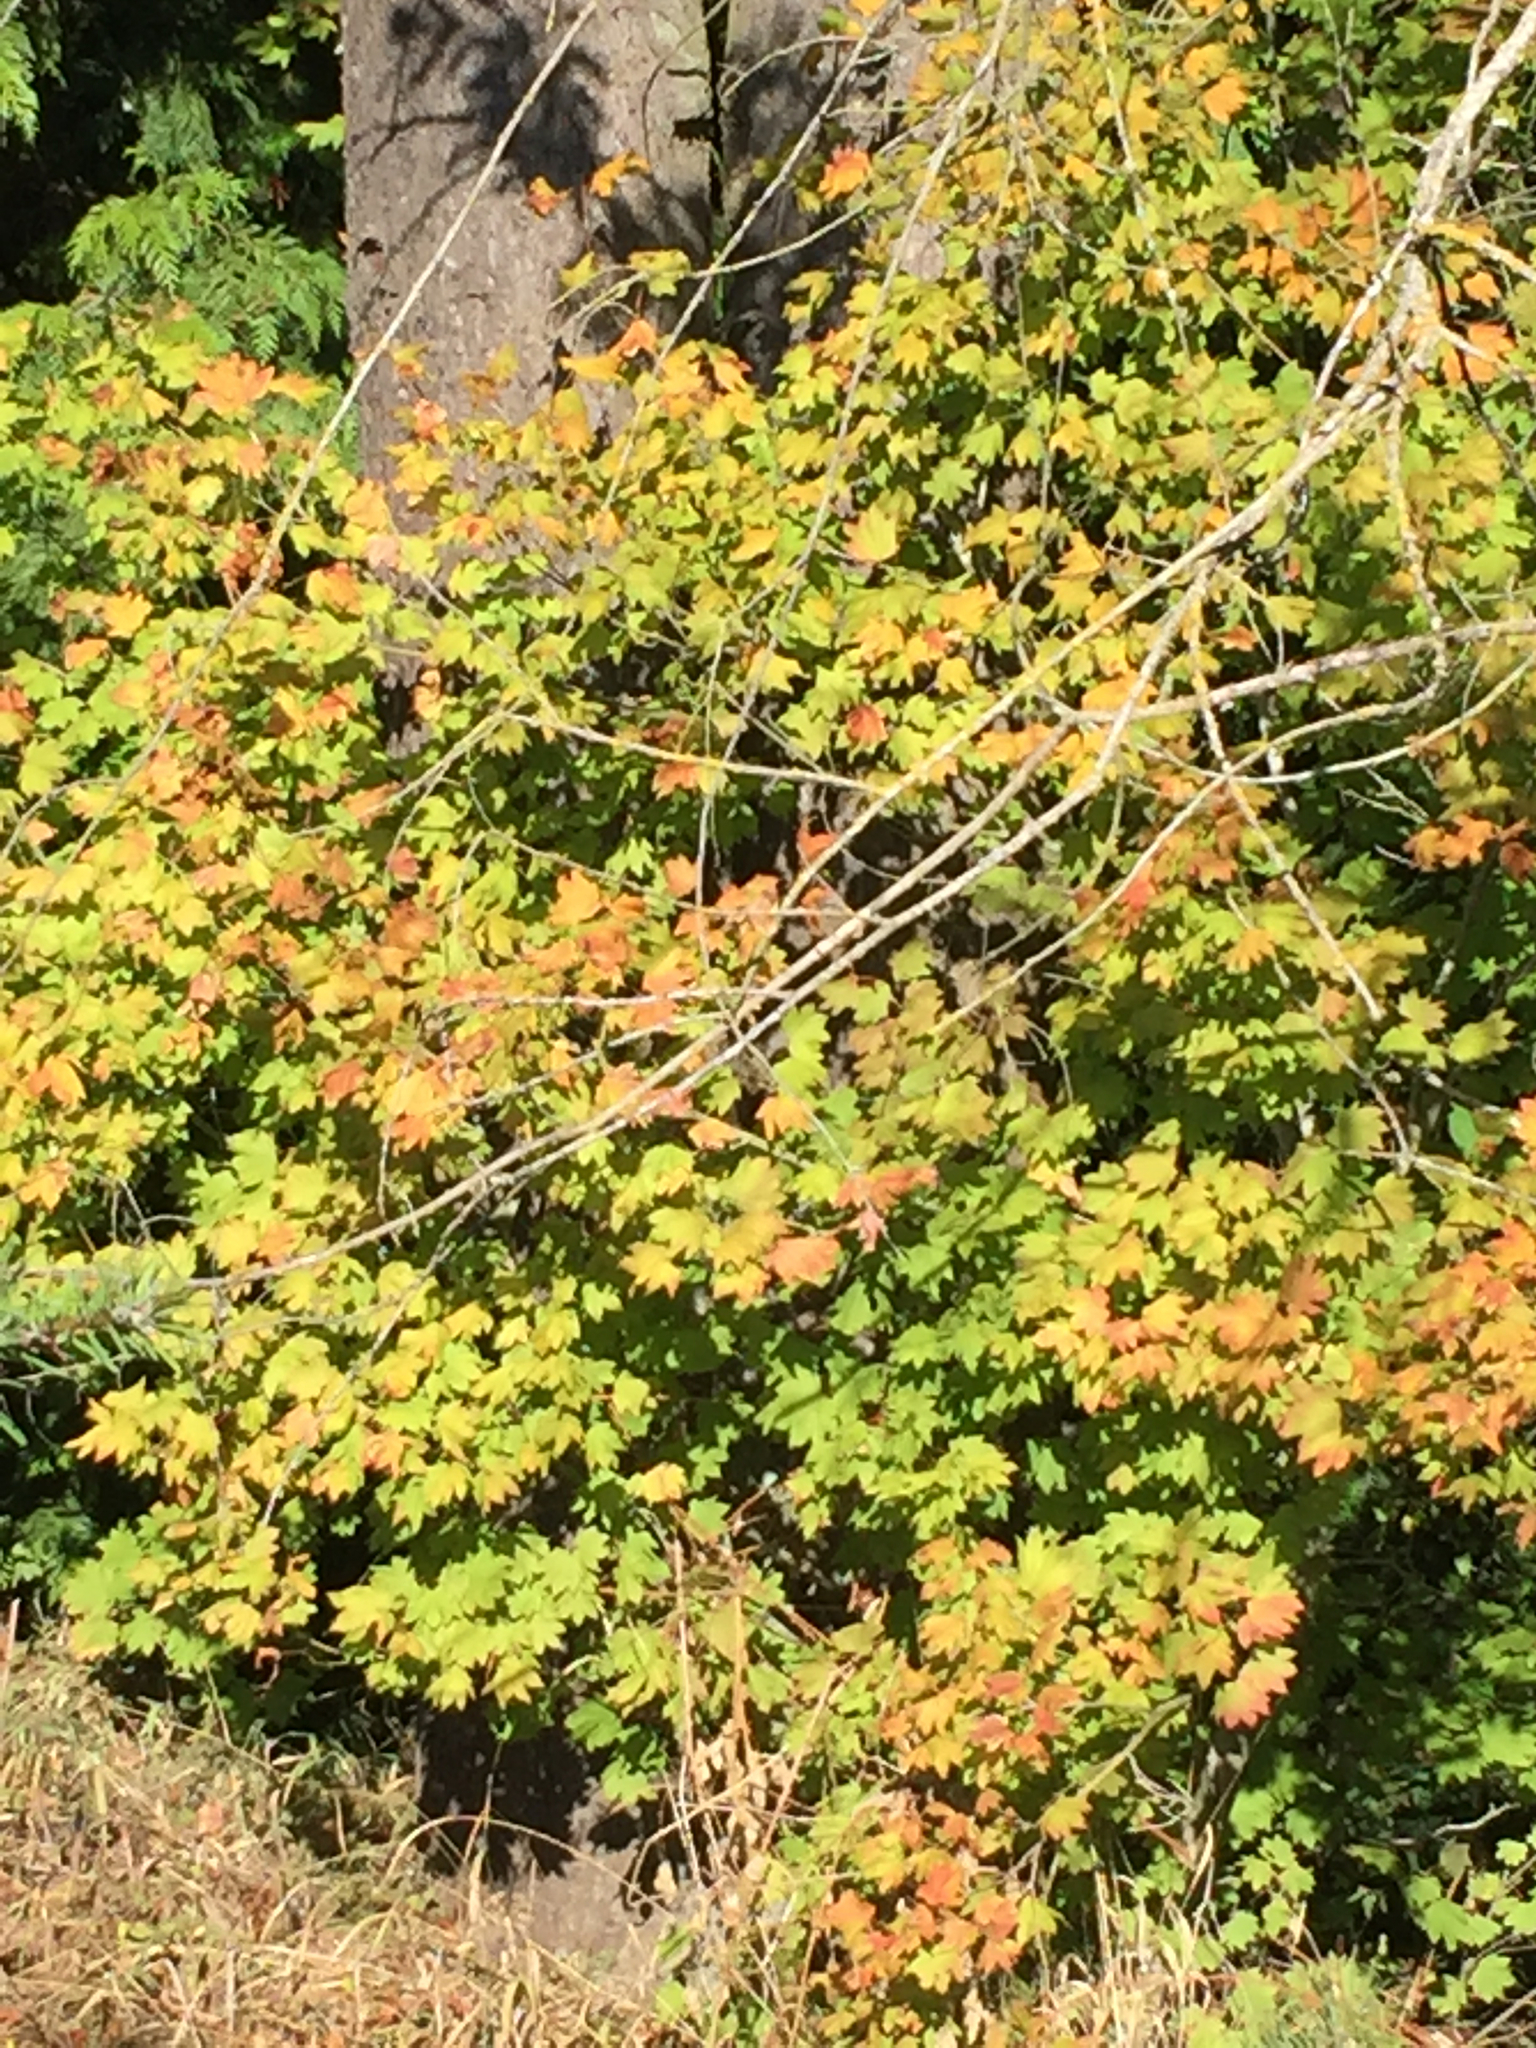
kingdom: Plantae
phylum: Tracheophyta
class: Magnoliopsida
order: Sapindales
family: Sapindaceae
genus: Acer
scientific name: Acer circinatum
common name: Vine maple
